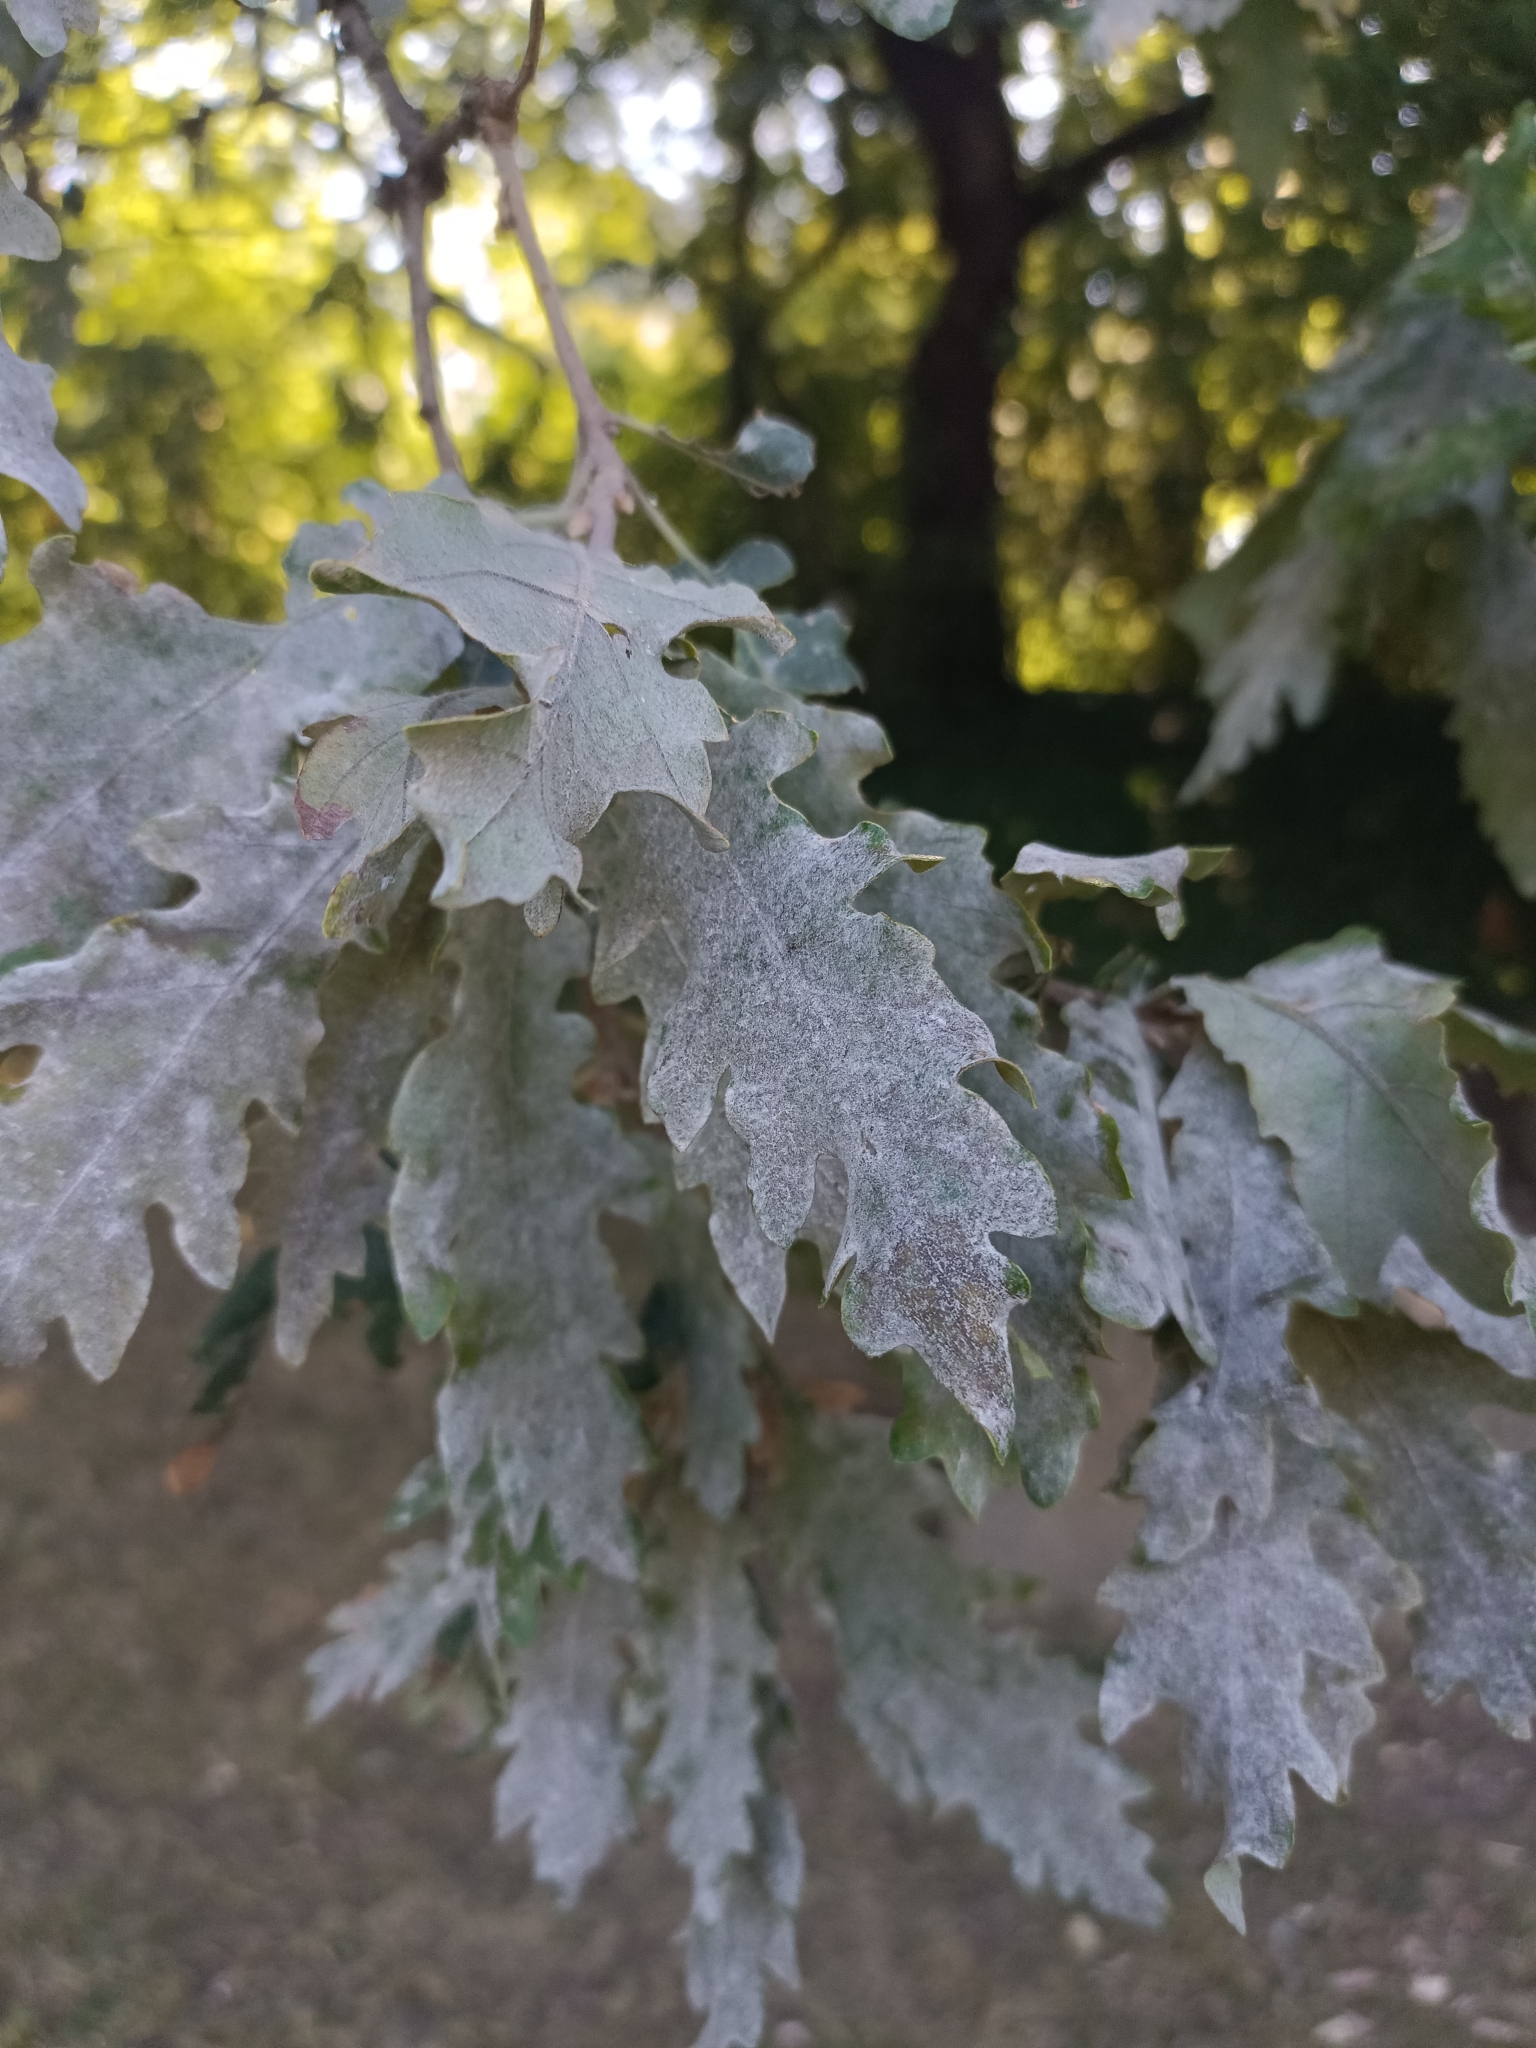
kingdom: Fungi
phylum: Ascomycota
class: Leotiomycetes
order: Helotiales
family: Erysiphaceae
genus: Erysiphe
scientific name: Erysiphe
